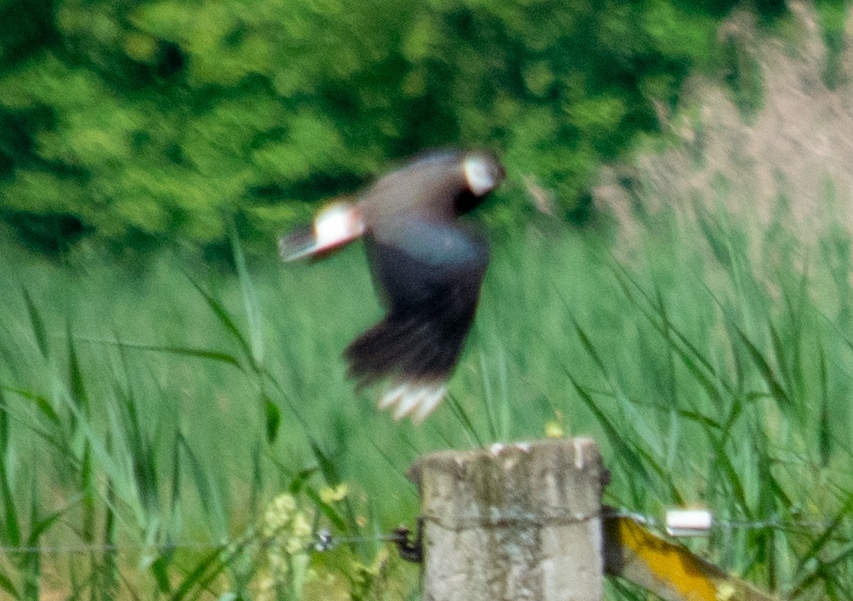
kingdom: Animalia
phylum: Chordata
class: Aves
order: Charadriiformes
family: Charadriidae
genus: Vanellus
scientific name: Vanellus vanellus
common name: Northern lapwing
